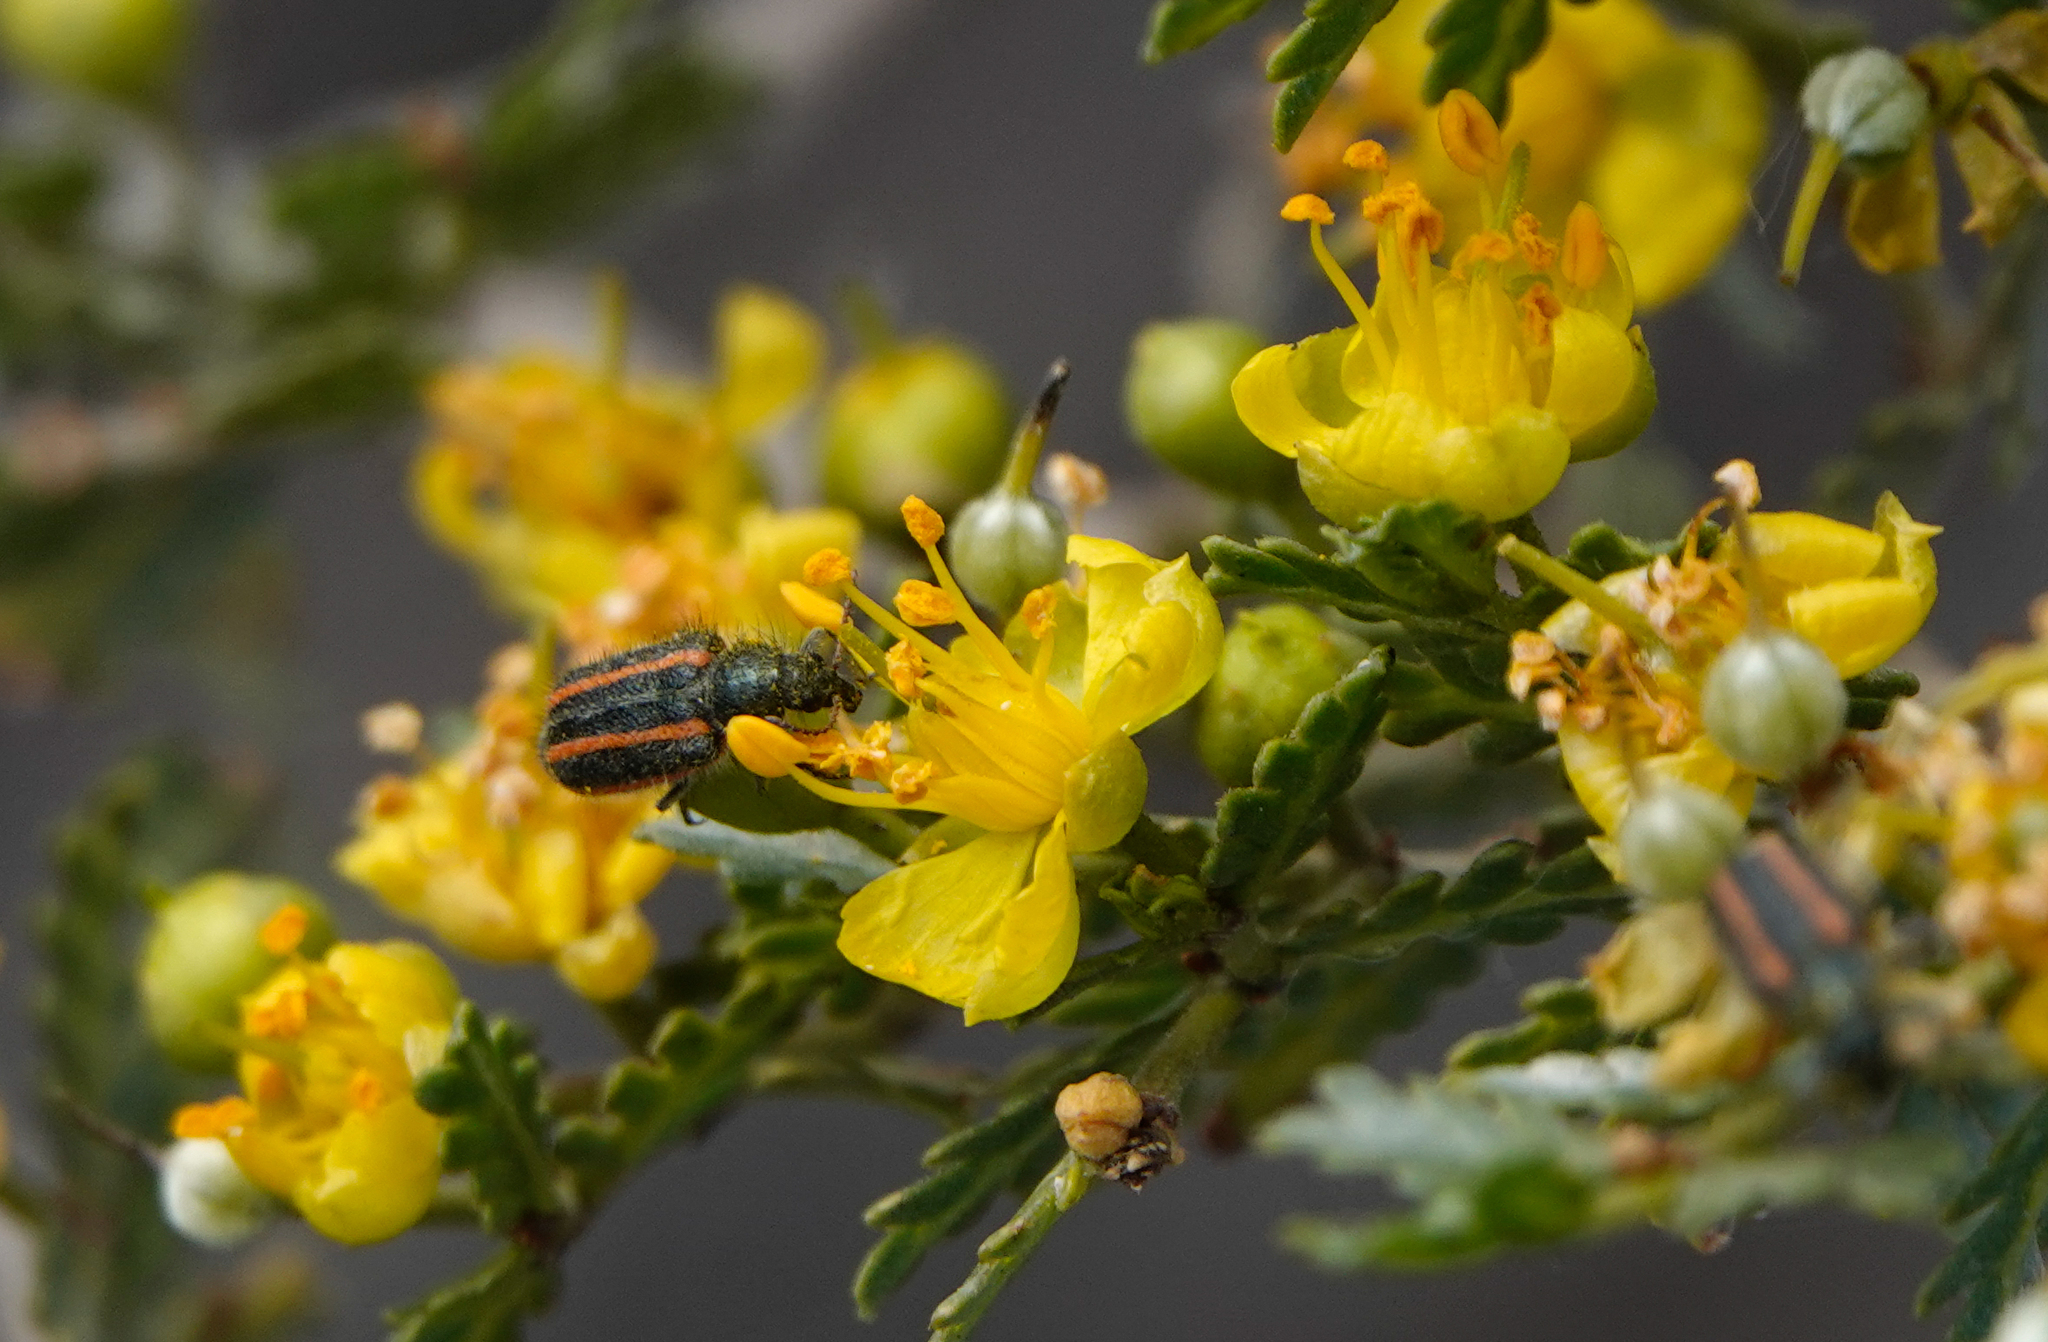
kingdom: Animalia
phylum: Arthropoda
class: Insecta
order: Coleoptera
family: Melyridae
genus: Astylus
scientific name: Astylus
